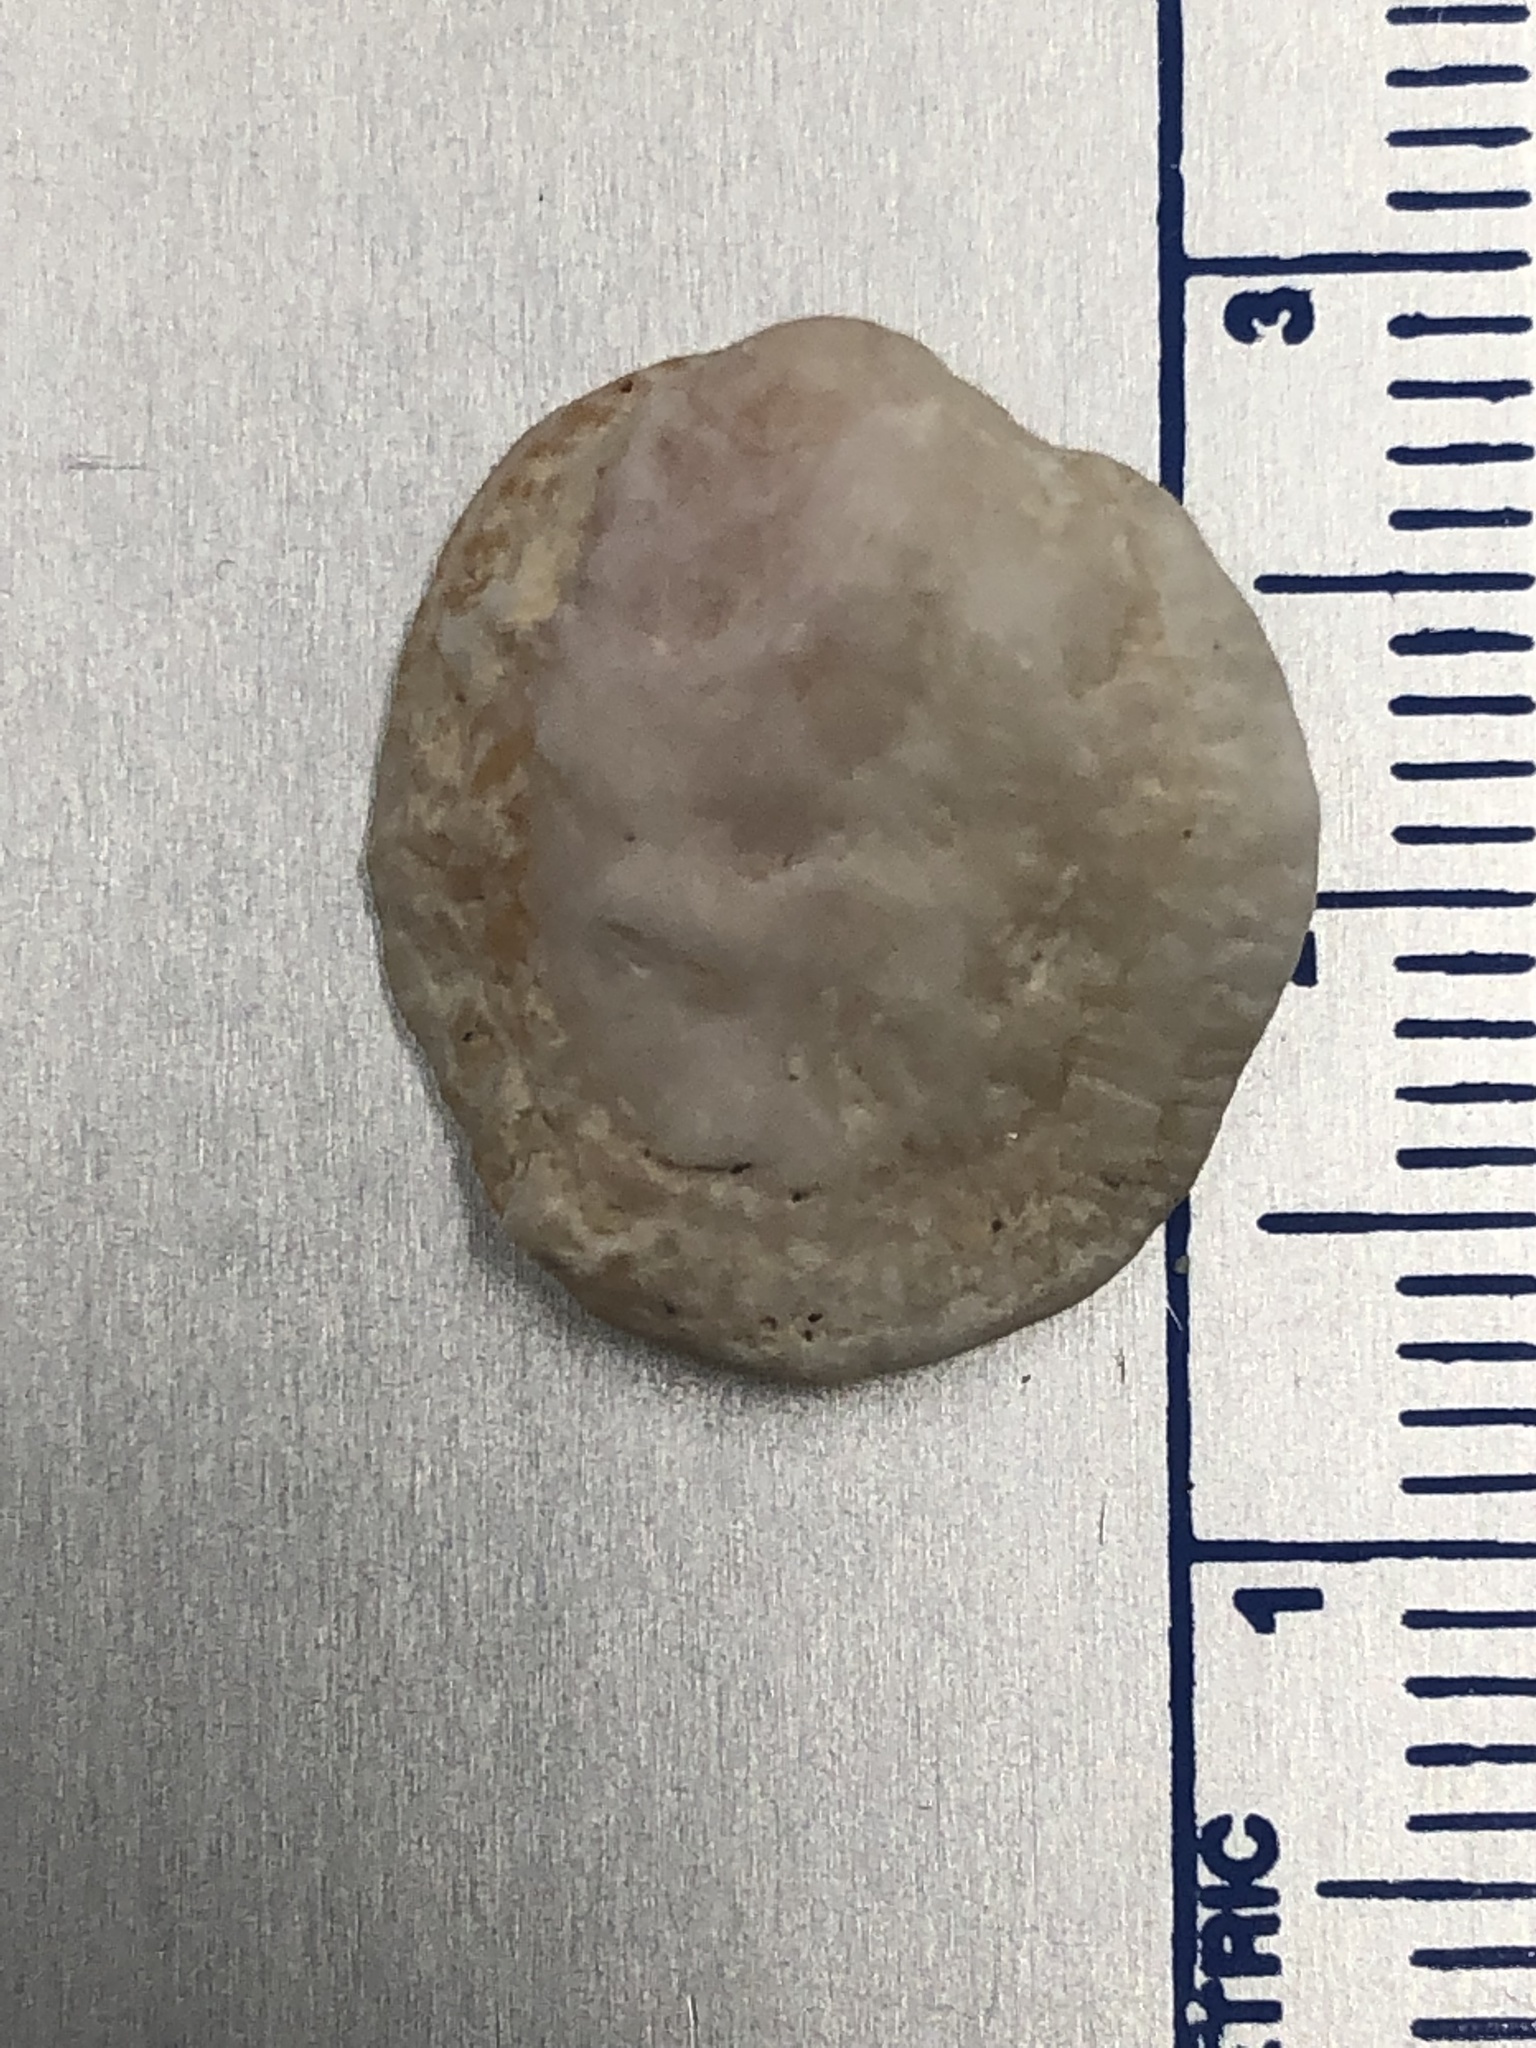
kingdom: Animalia
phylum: Mollusca
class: Bivalvia
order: Venerida
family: Chamidae
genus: Chama
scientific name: Chama congregata
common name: Corrugate jewelbox
